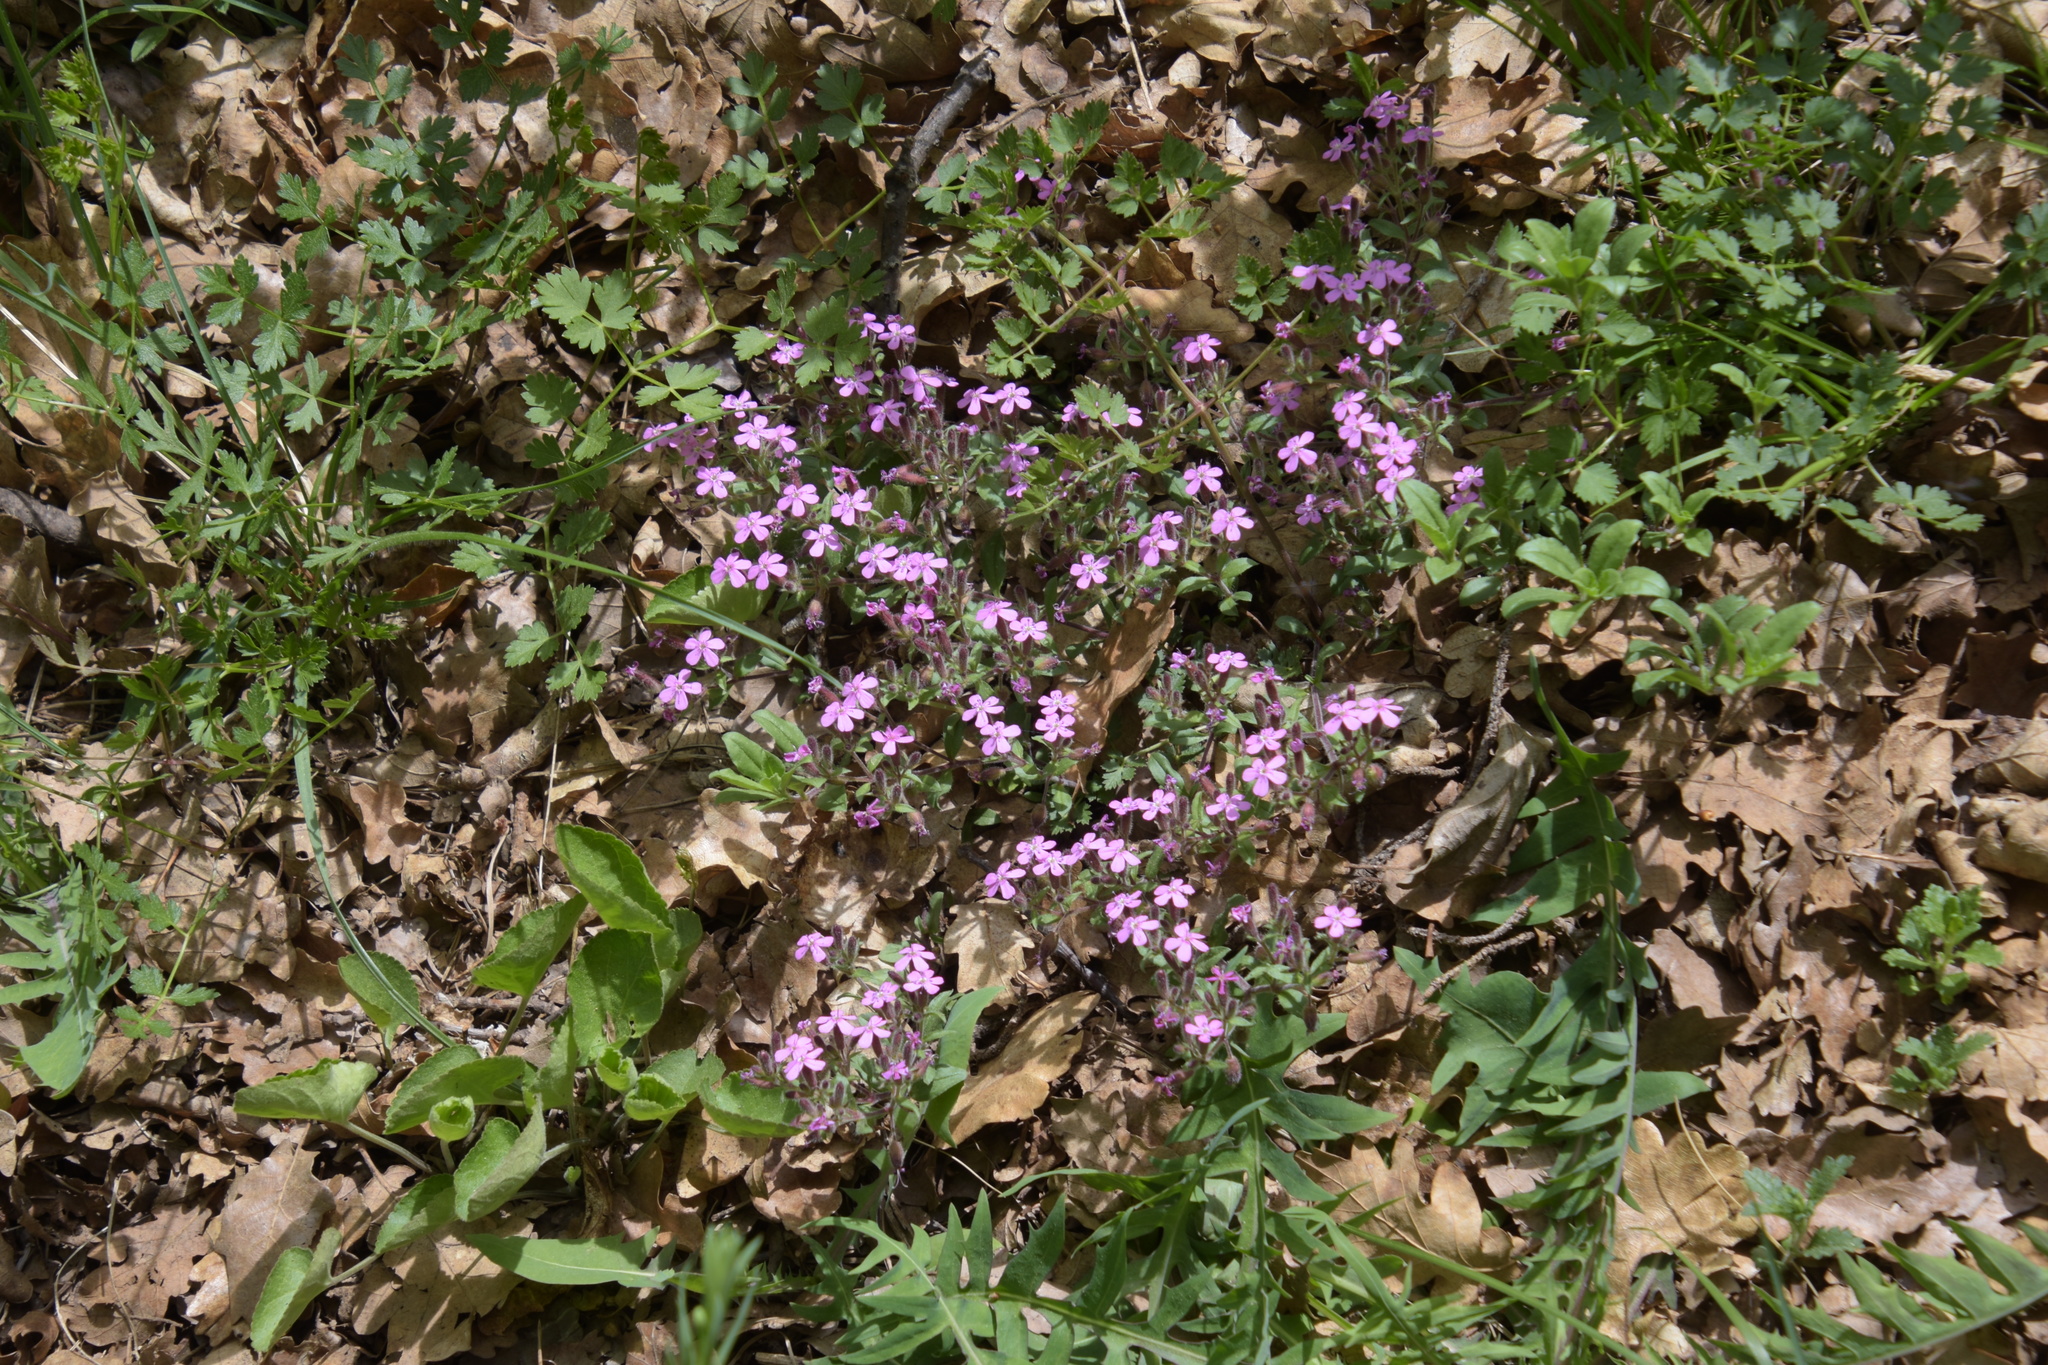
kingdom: Plantae
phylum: Tracheophyta
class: Magnoliopsida
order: Caryophyllales
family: Caryophyllaceae
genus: Saponaria
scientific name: Saponaria ocymoides
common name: Rock soapwort
